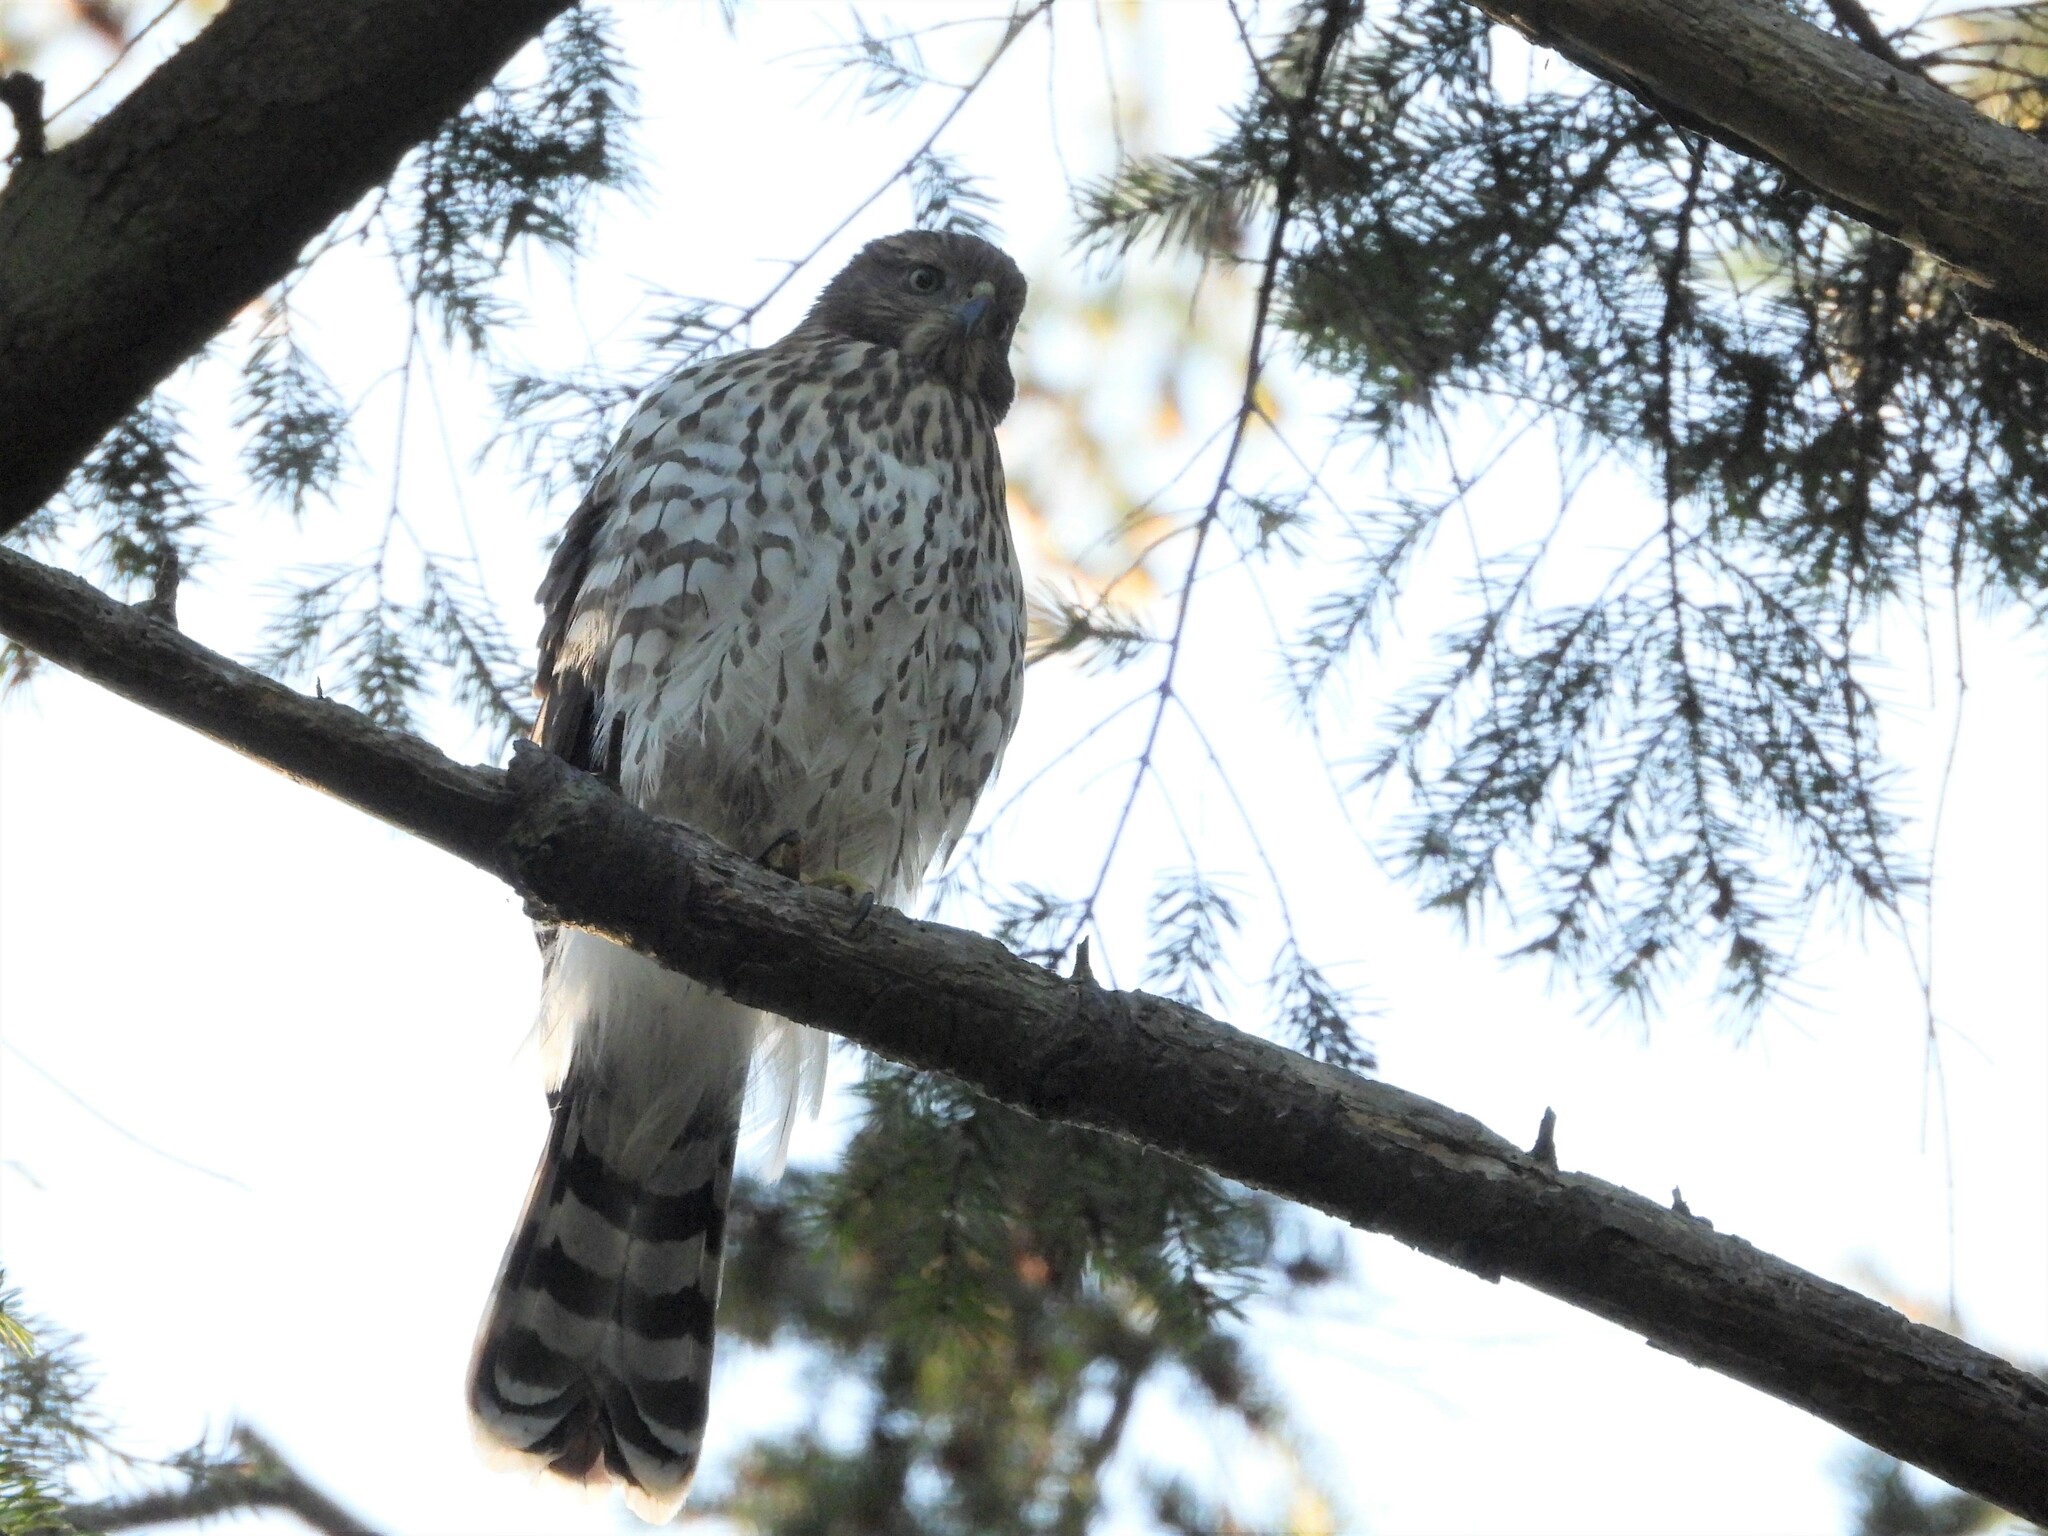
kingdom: Animalia
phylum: Chordata
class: Aves
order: Accipitriformes
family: Accipitridae
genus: Accipiter
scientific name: Accipiter cooperii
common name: Cooper's hawk
